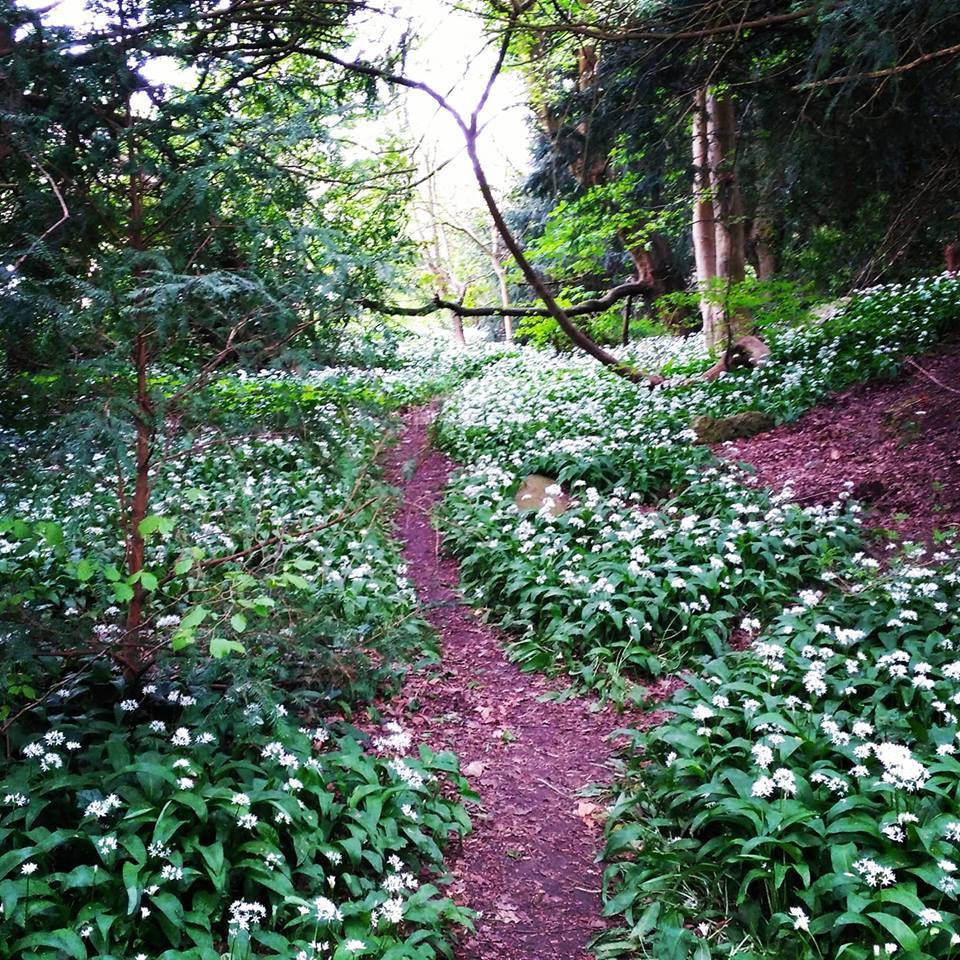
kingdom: Plantae
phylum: Tracheophyta
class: Liliopsida
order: Asparagales
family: Amaryllidaceae
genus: Allium
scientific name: Allium ursinum
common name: Ramsons
